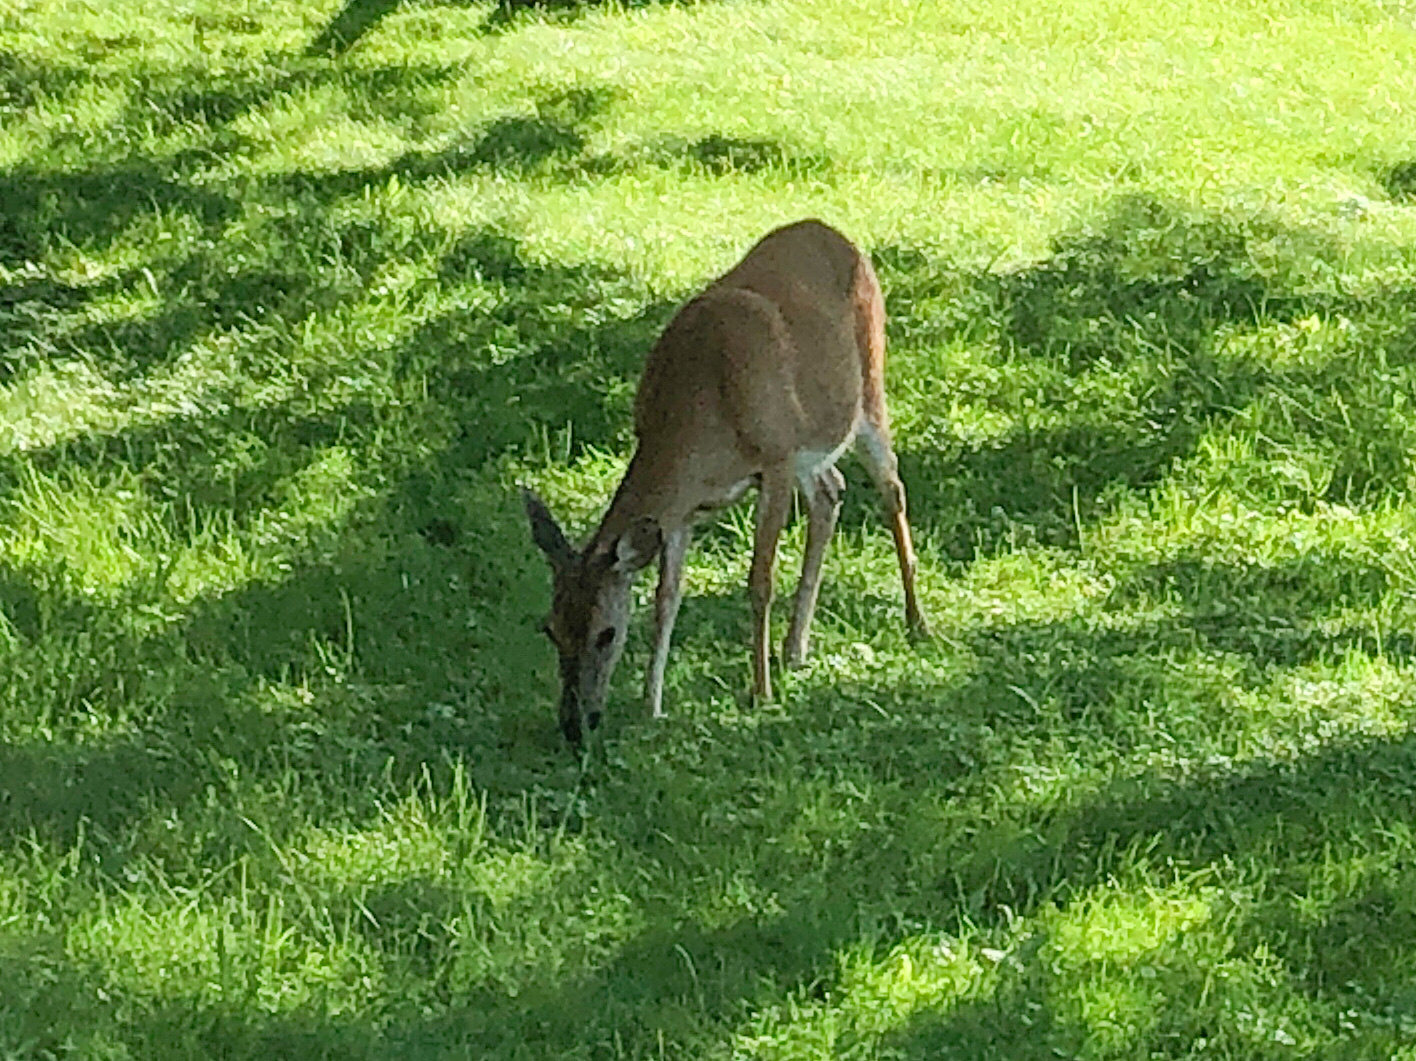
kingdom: Animalia
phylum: Chordata
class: Mammalia
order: Artiodactyla
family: Cervidae
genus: Odocoileus
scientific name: Odocoileus virginianus
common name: White-tailed deer
